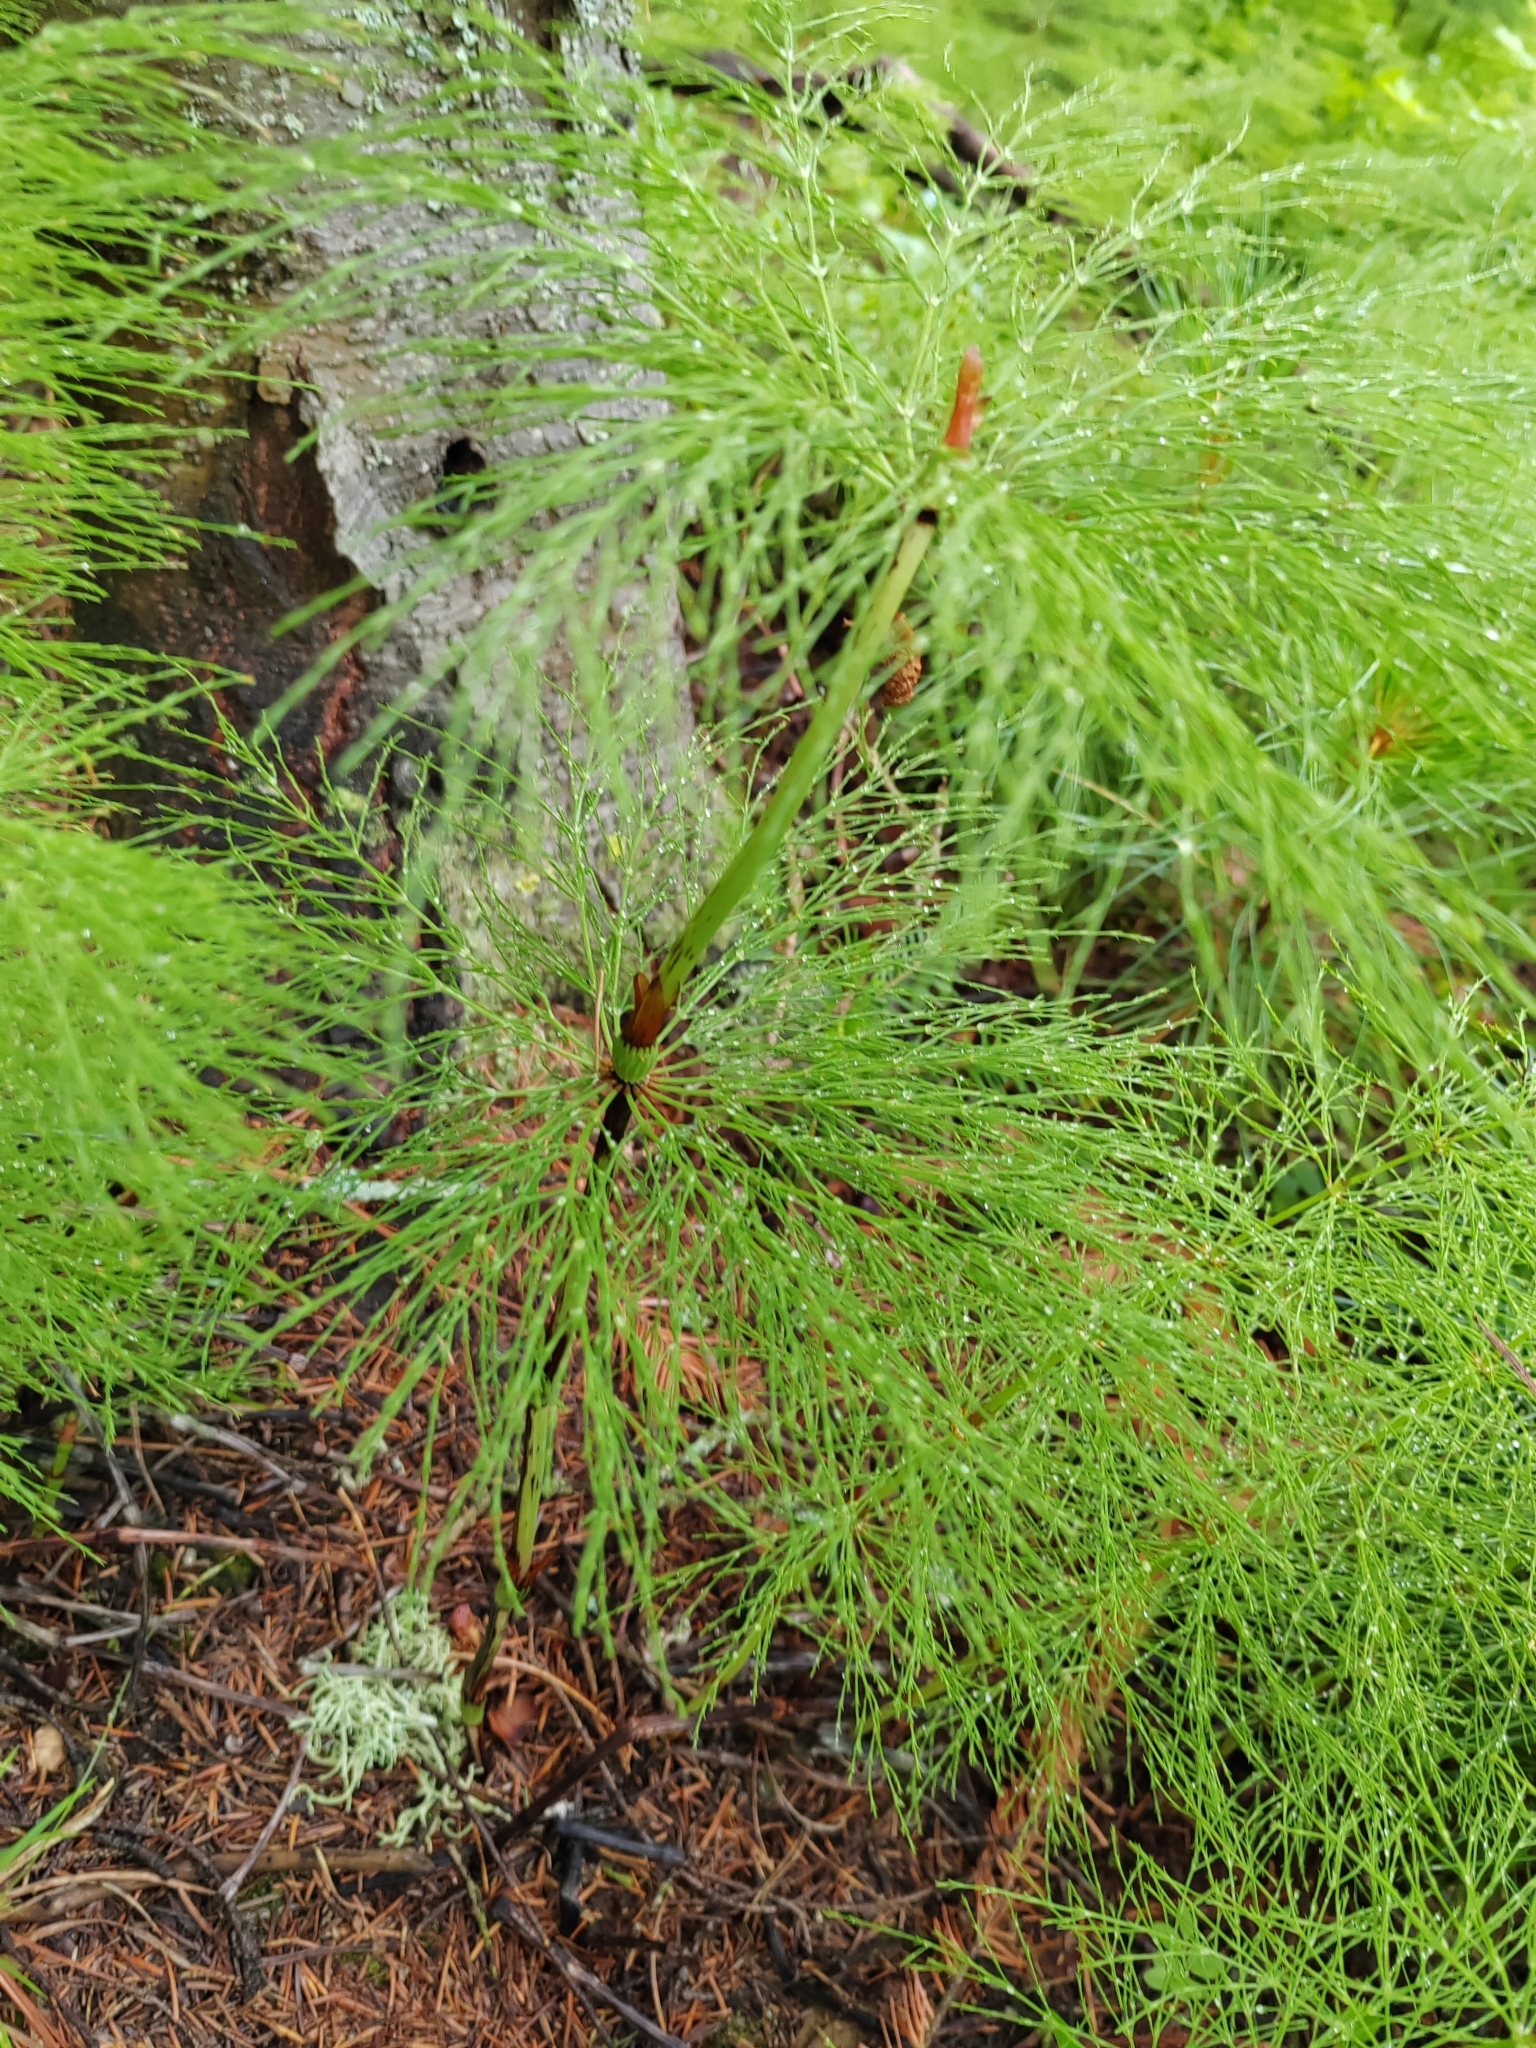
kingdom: Plantae
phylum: Tracheophyta
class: Polypodiopsida
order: Equisetales
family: Equisetaceae
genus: Equisetum
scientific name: Equisetum sylvaticum
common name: Wood horsetail
